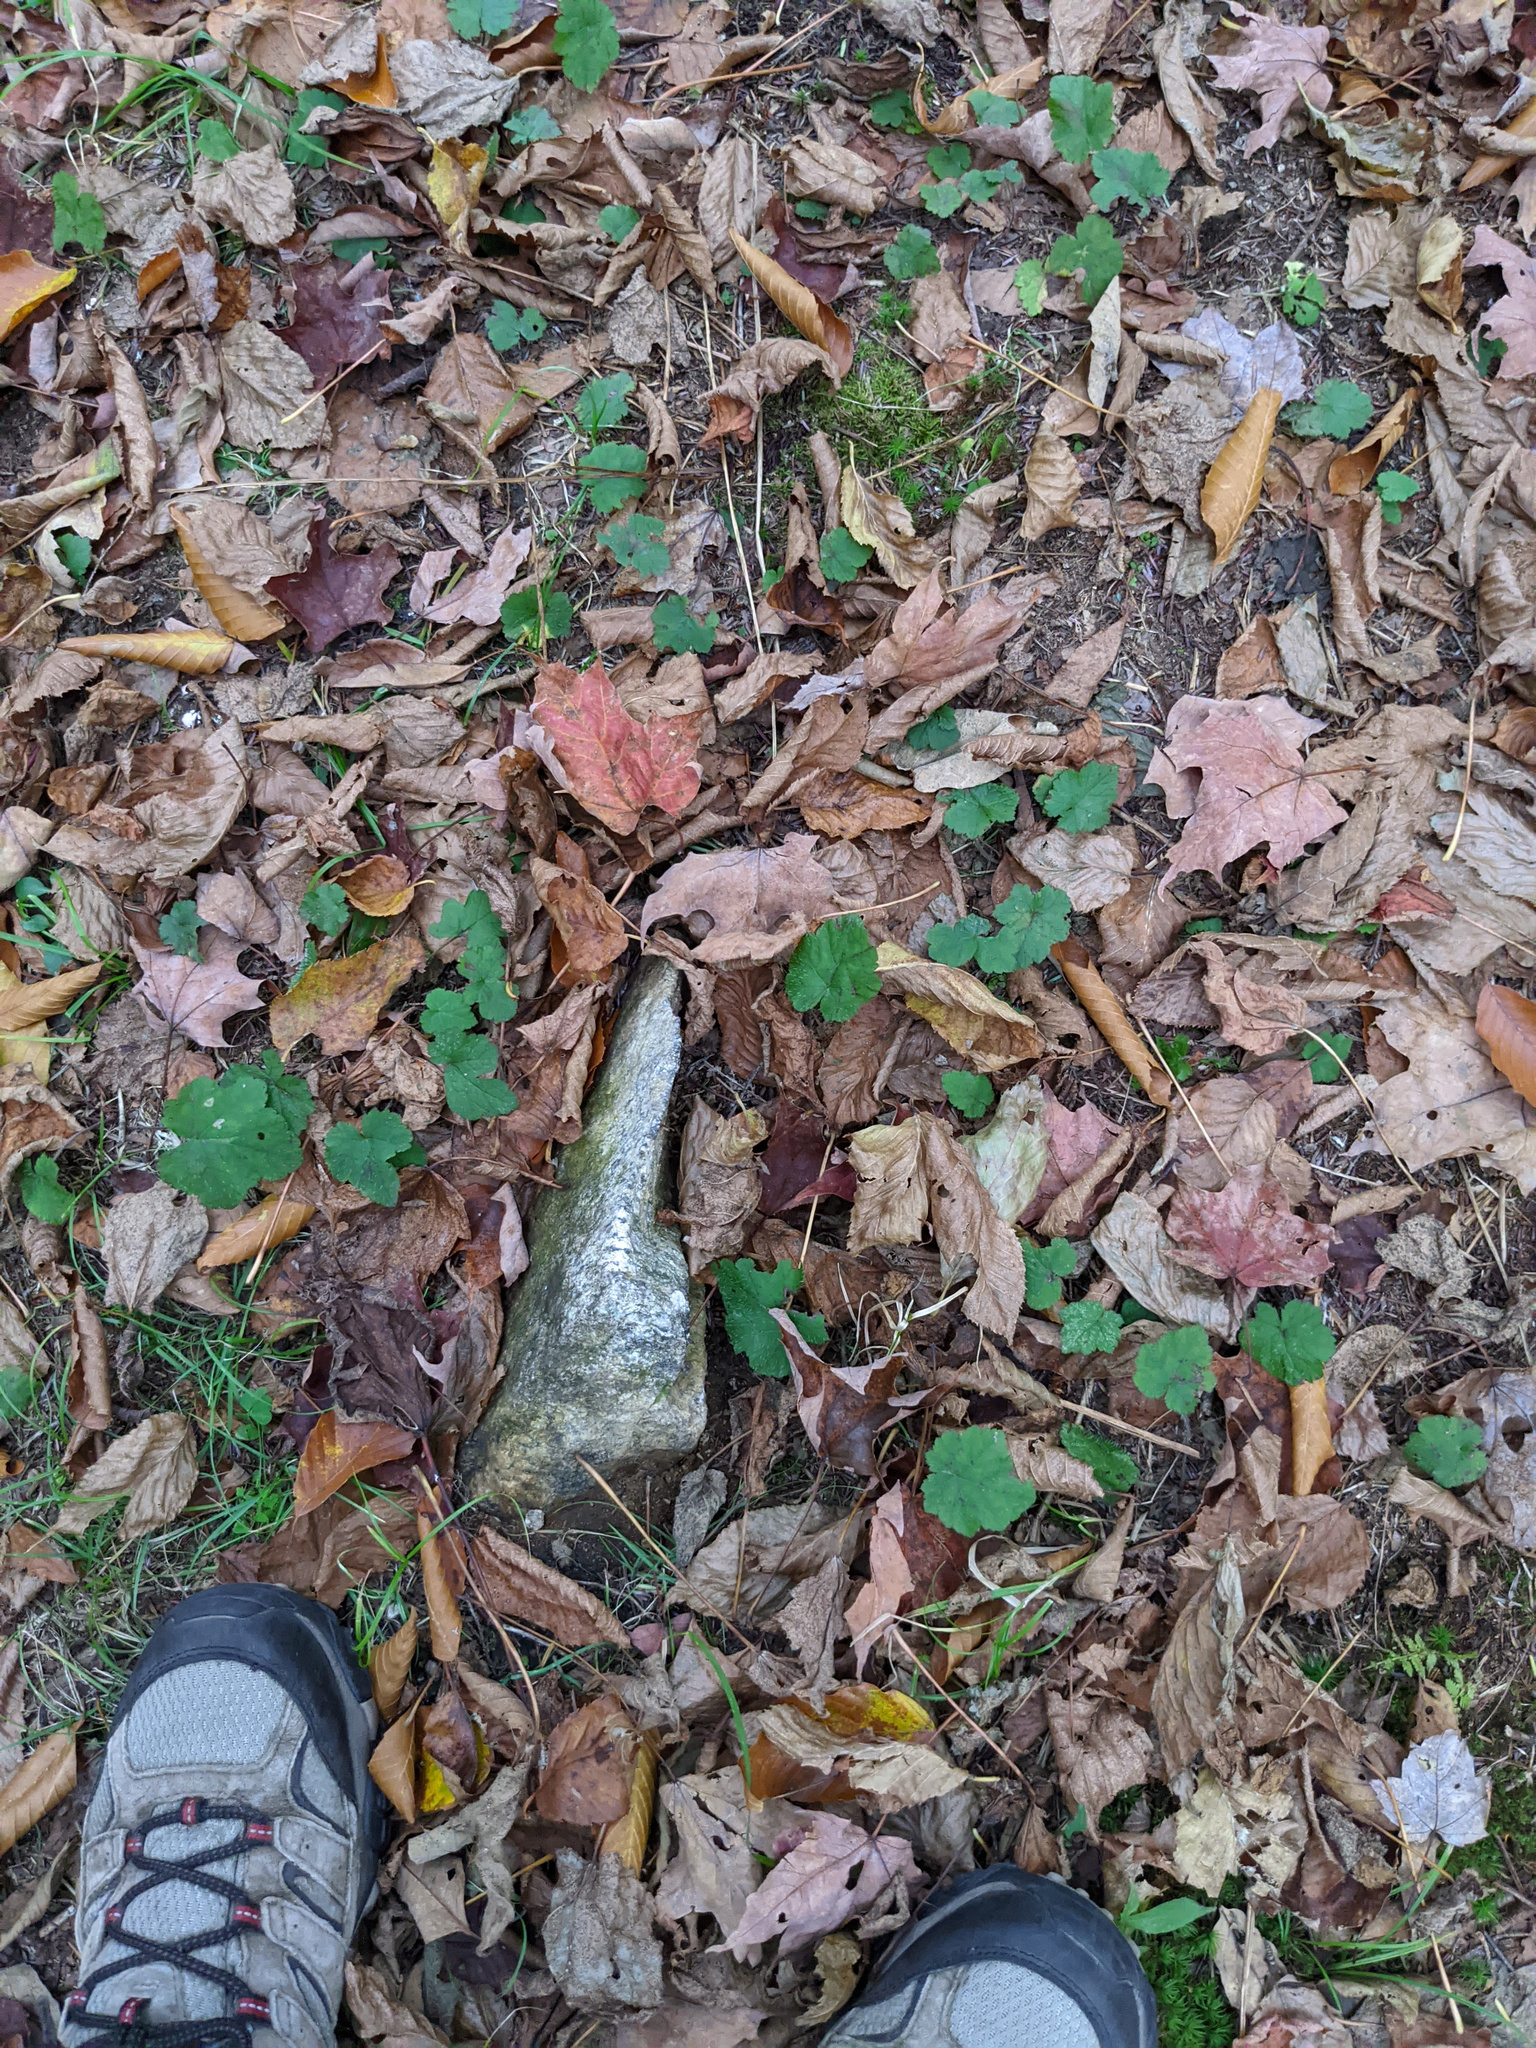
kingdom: Plantae
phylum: Tracheophyta
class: Magnoliopsida
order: Saxifragales
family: Saxifragaceae
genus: Tiarella
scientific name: Tiarella stolonifera
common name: Stoloniferous foamflower
